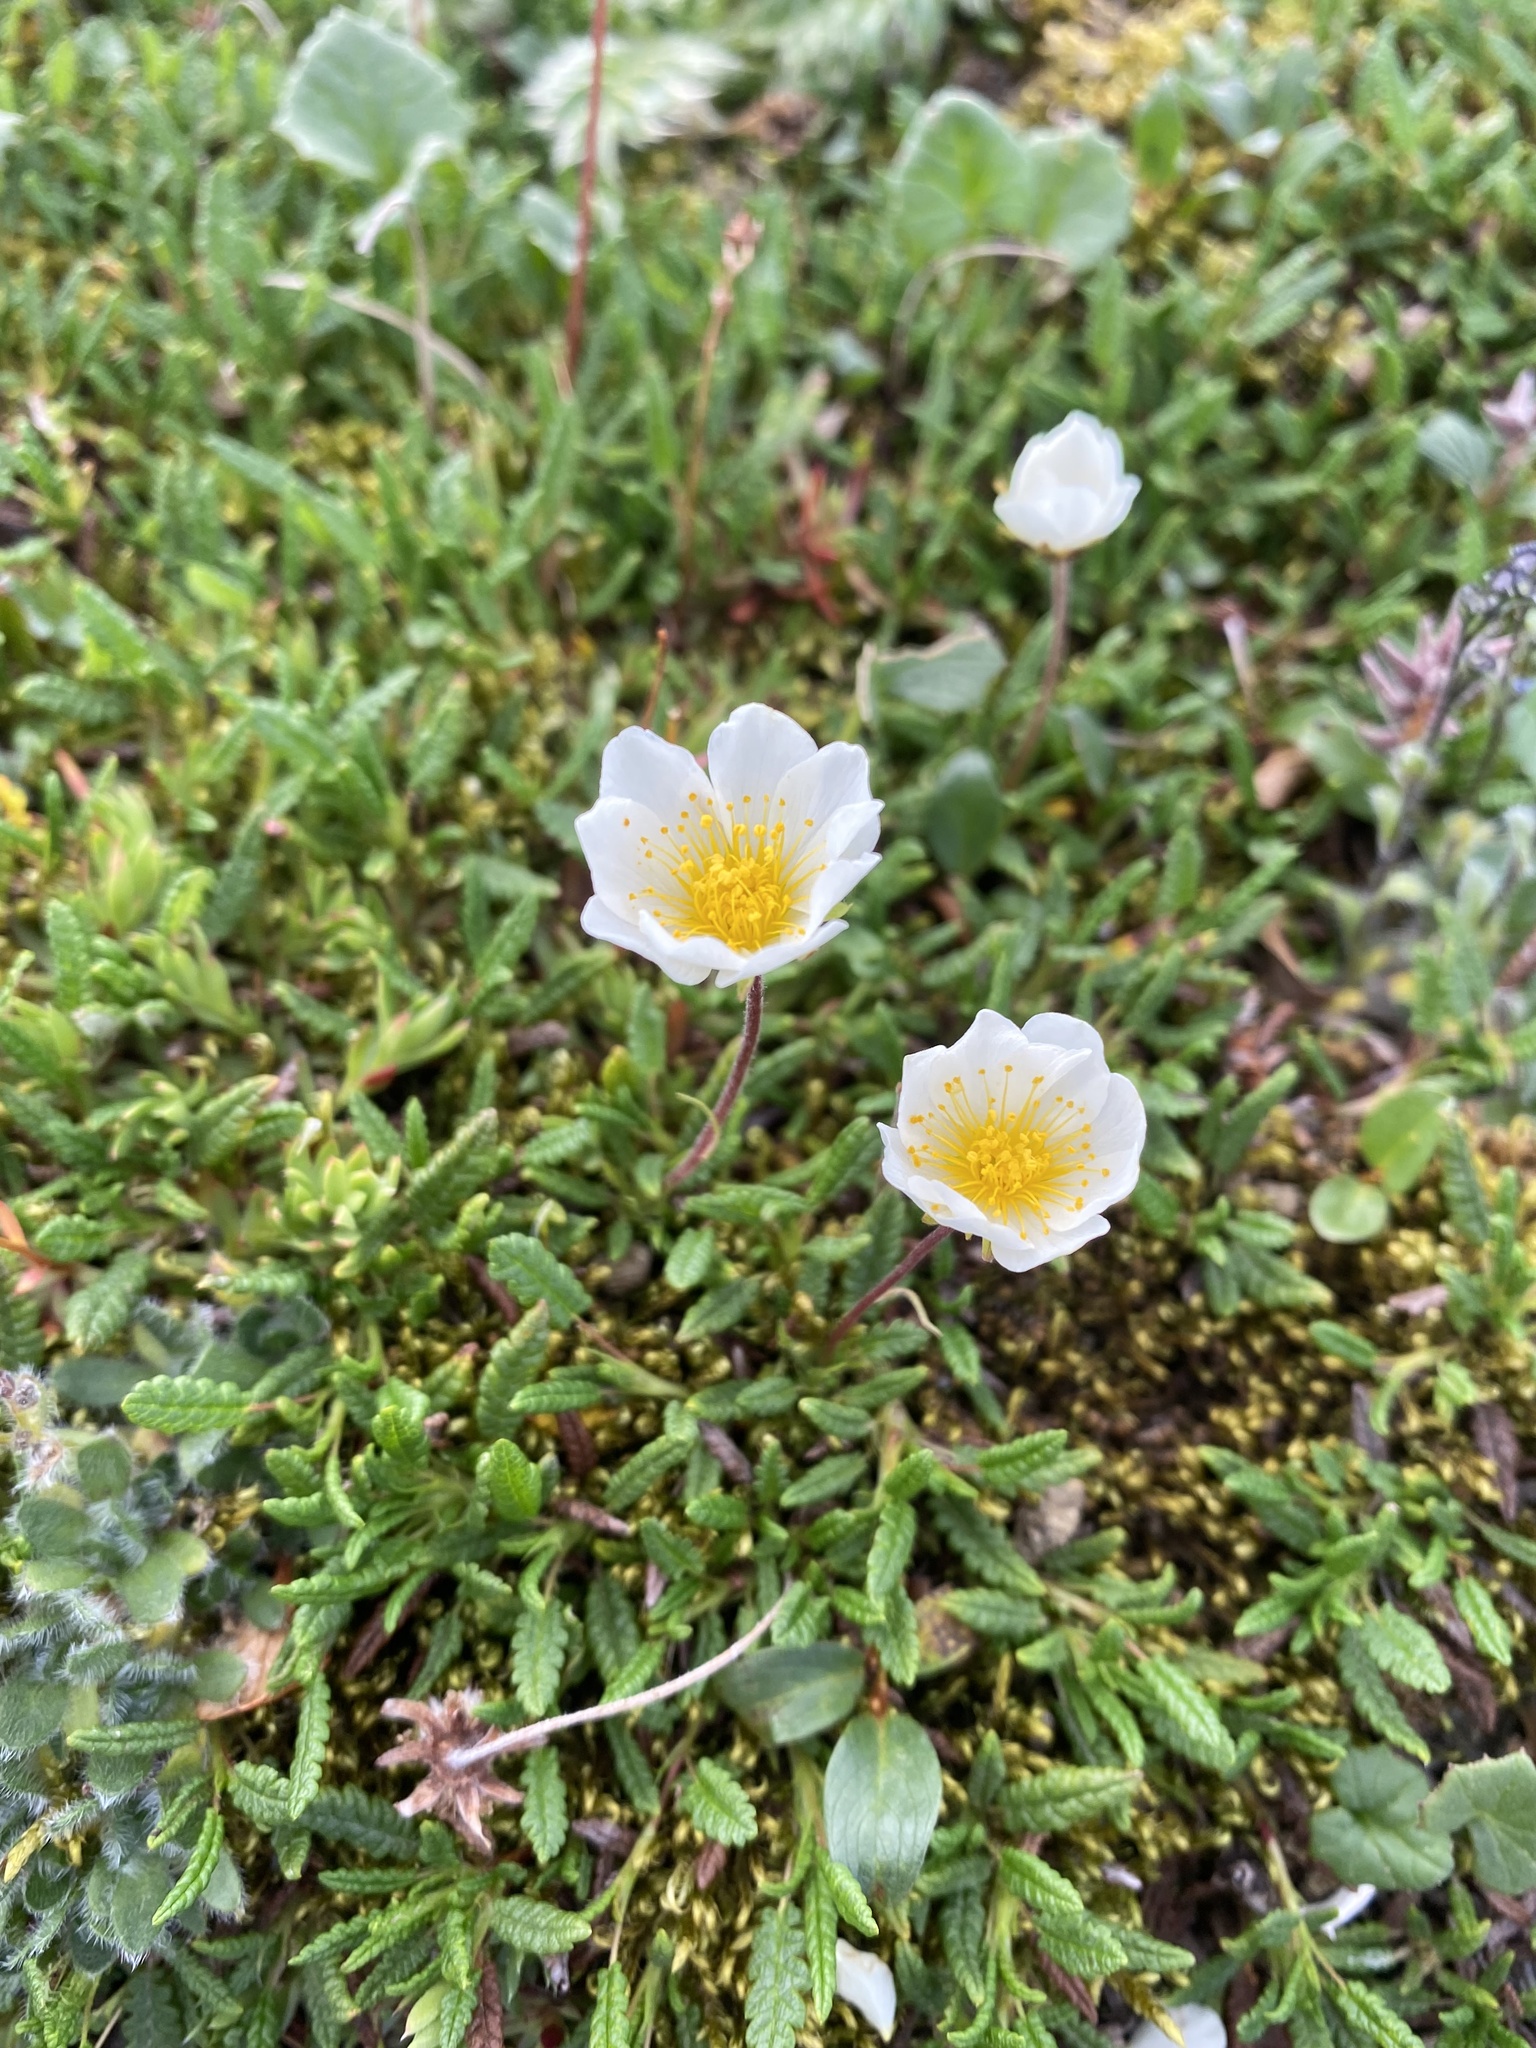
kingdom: Plantae
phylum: Tracheophyta
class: Magnoliopsida
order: Rosales
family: Rosaceae
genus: Dryas
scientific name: Dryas octopetala
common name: Eight-petal mountain-avens
